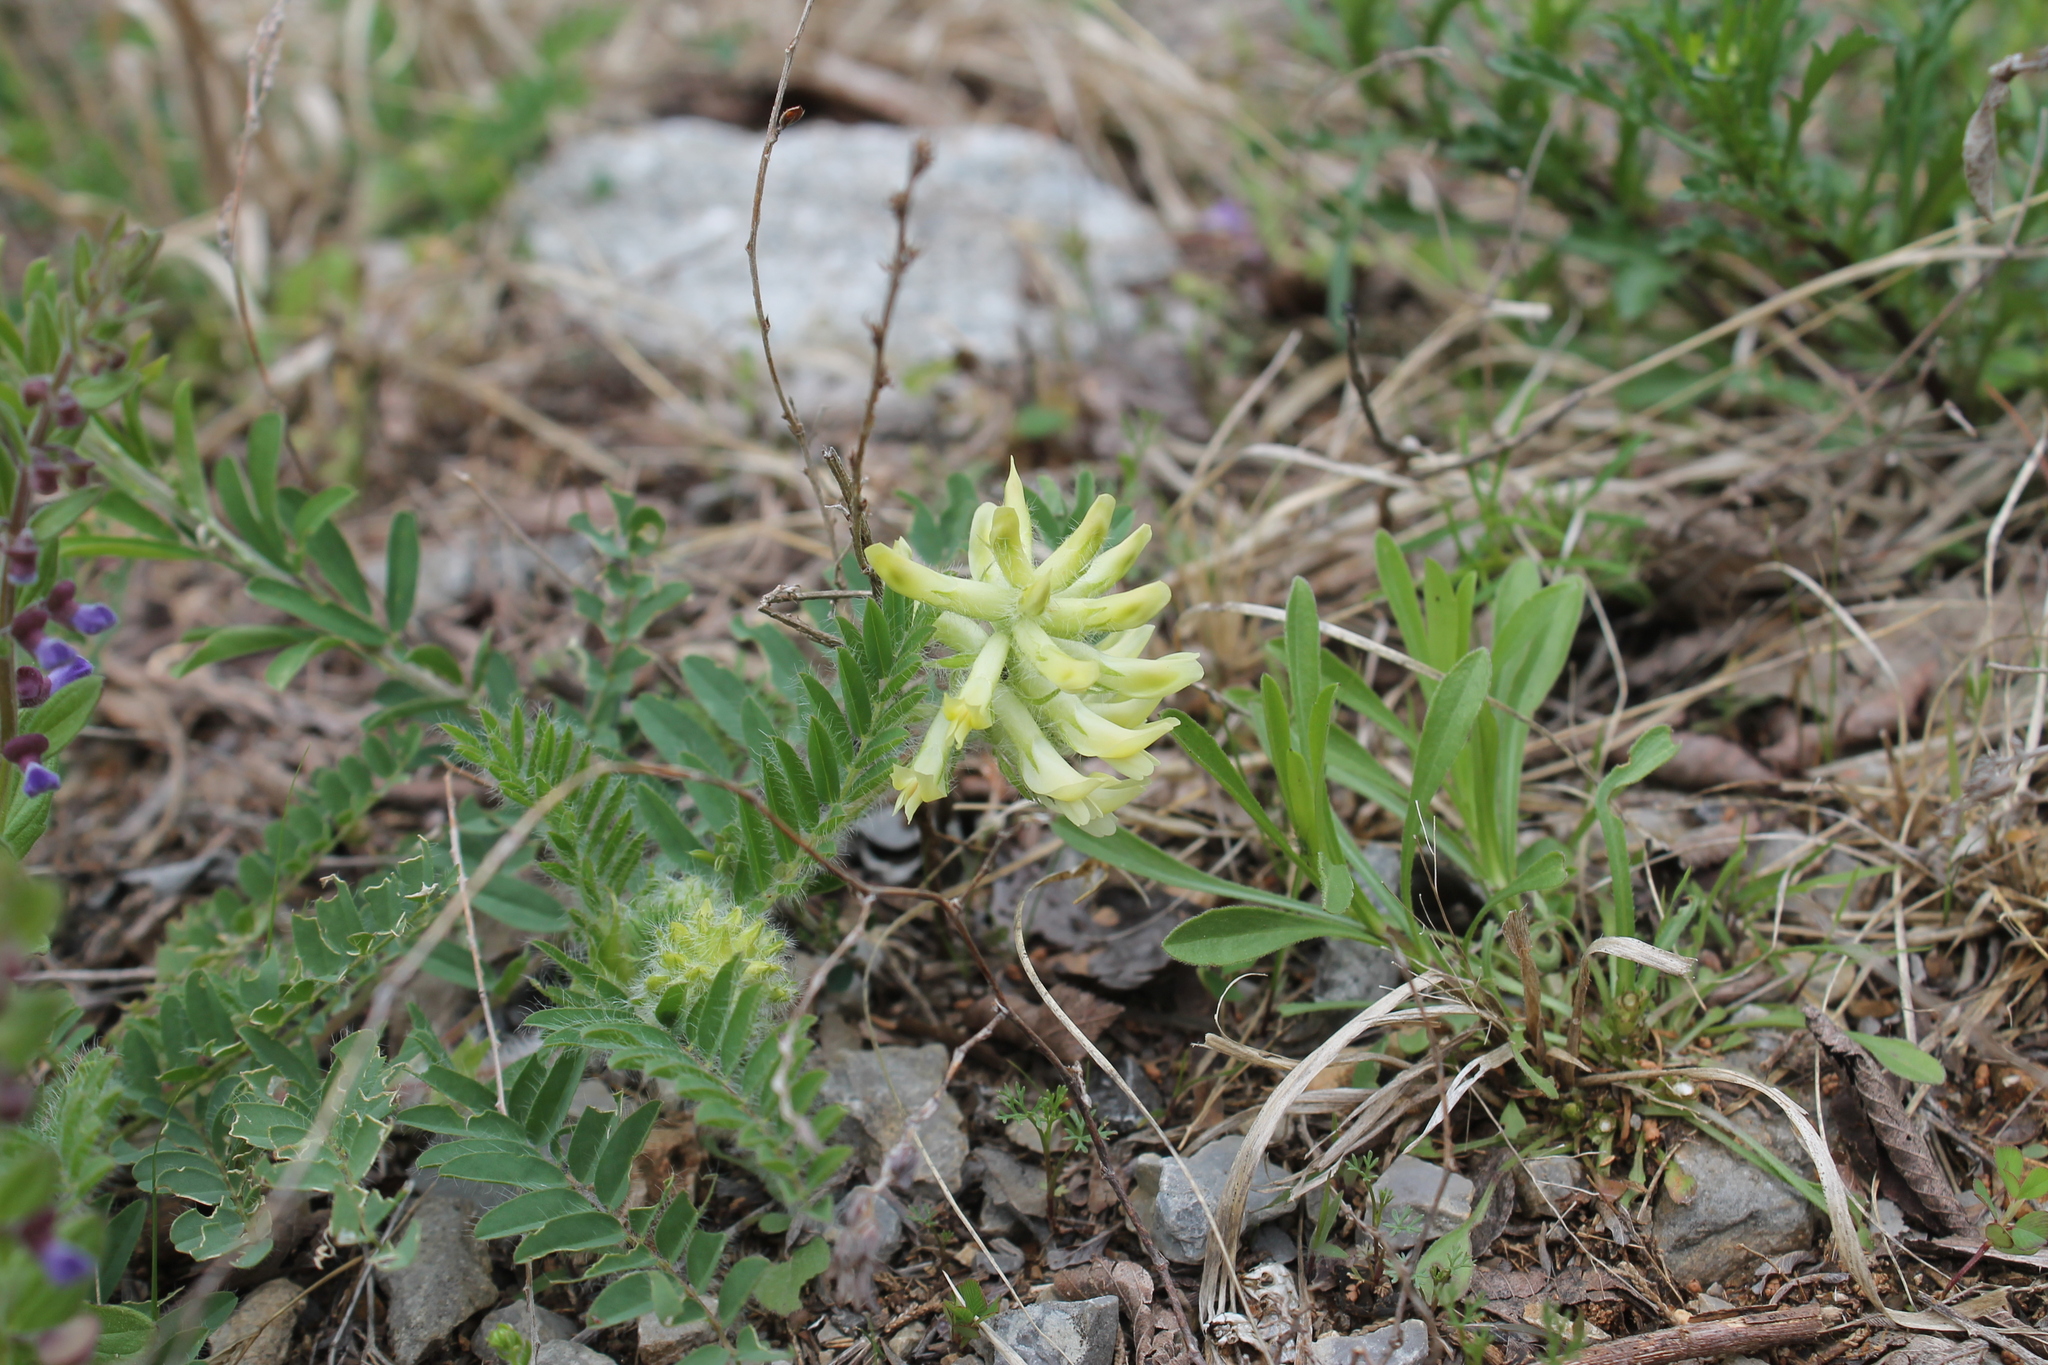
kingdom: Plantae
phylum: Tracheophyta
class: Magnoliopsida
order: Fabales
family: Fabaceae
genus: Astragalus
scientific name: Astragalus tennesseensis
